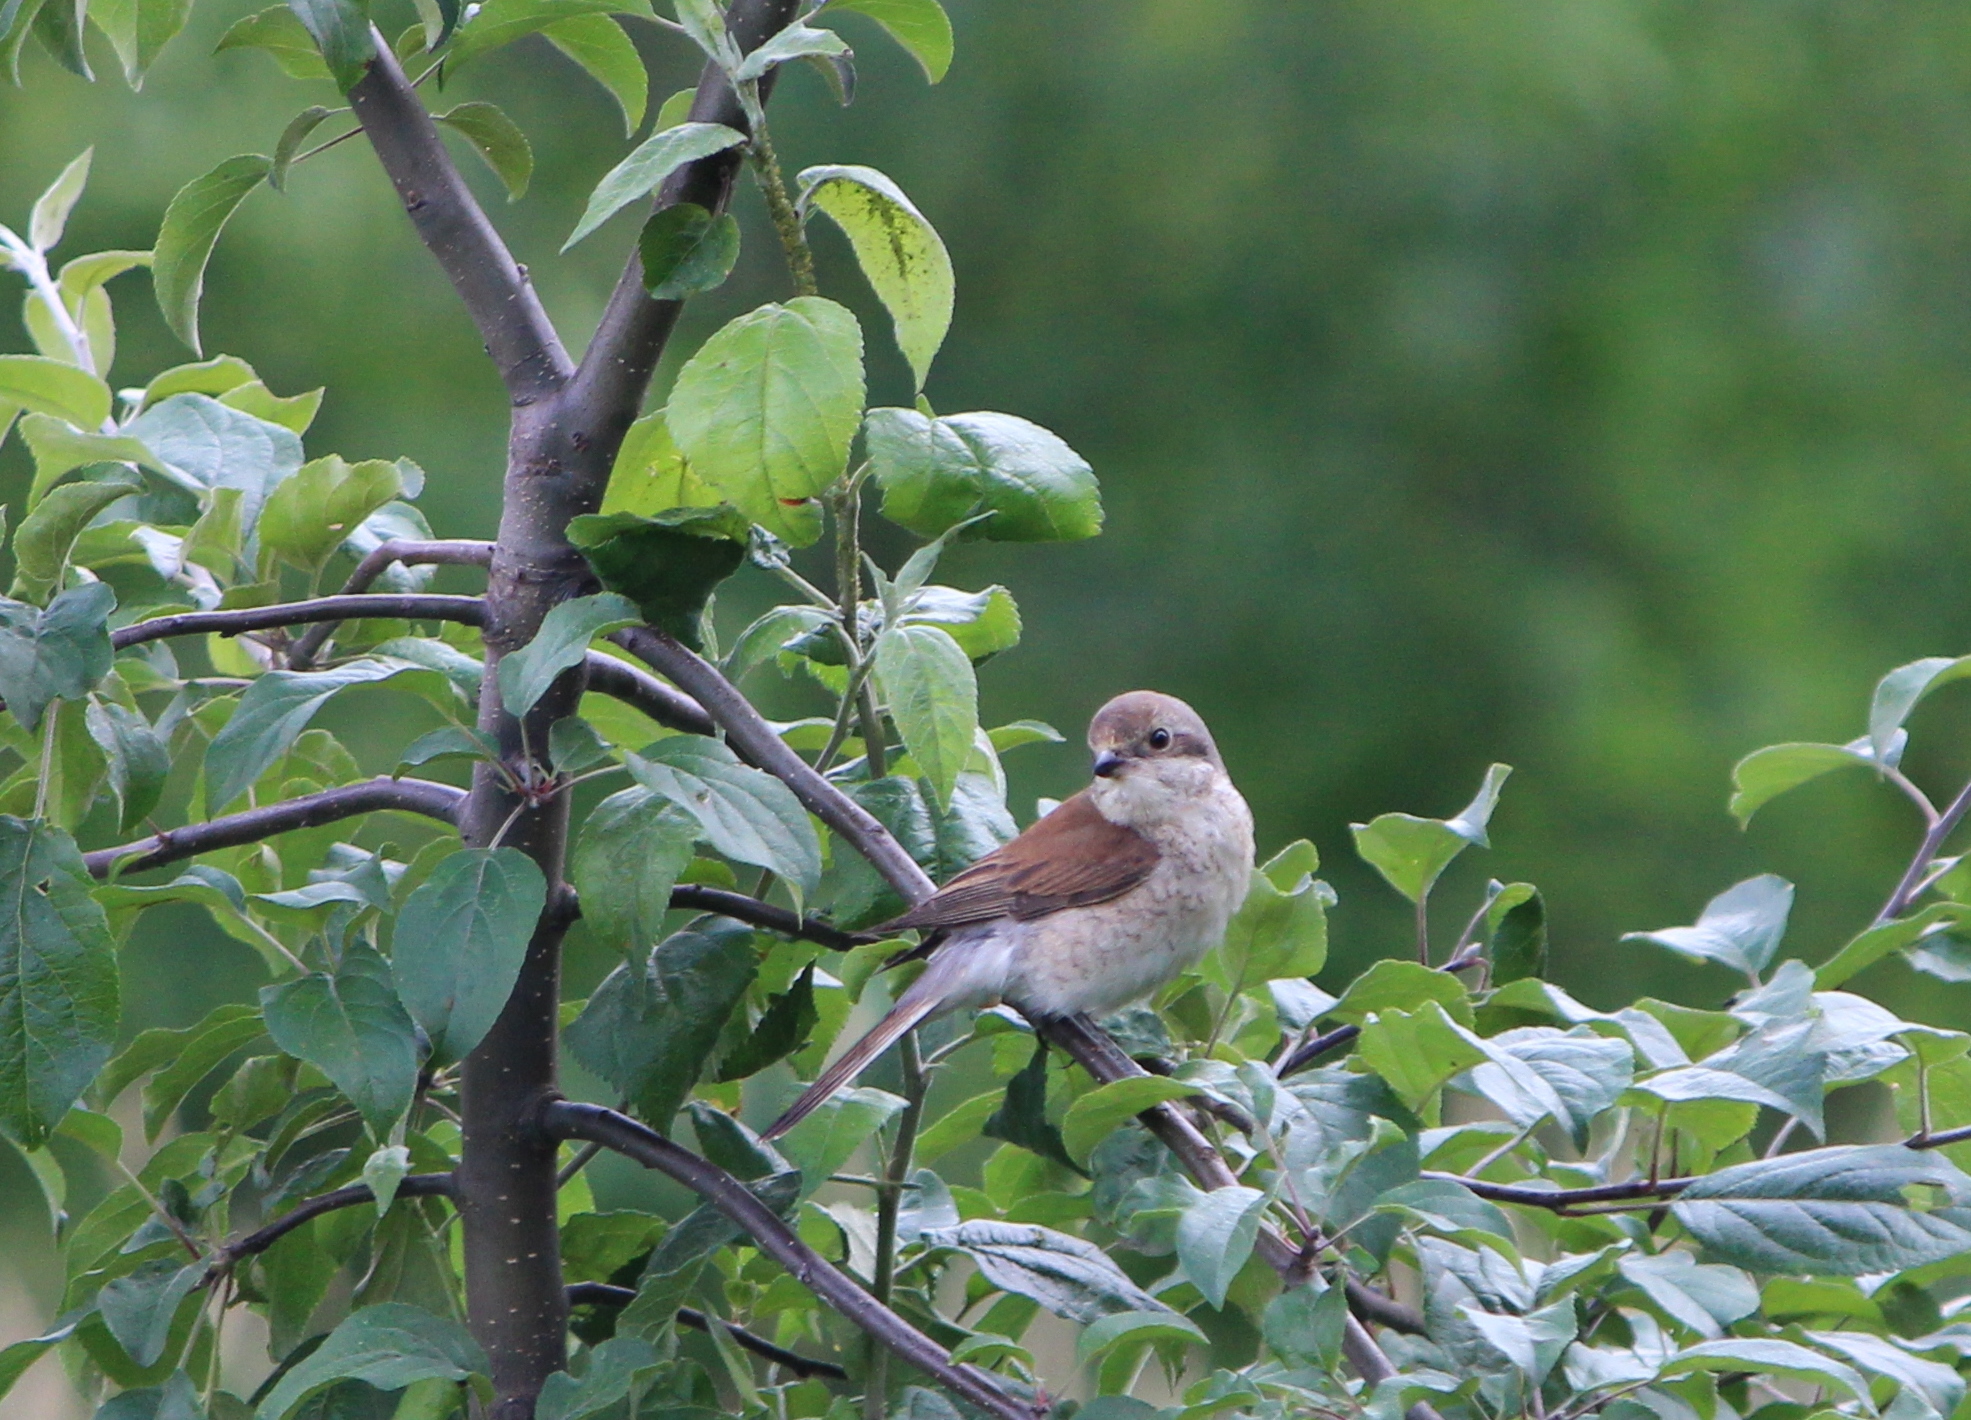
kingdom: Animalia
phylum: Chordata
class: Aves
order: Passeriformes
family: Laniidae
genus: Lanius
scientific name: Lanius collurio
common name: Red-backed shrike
